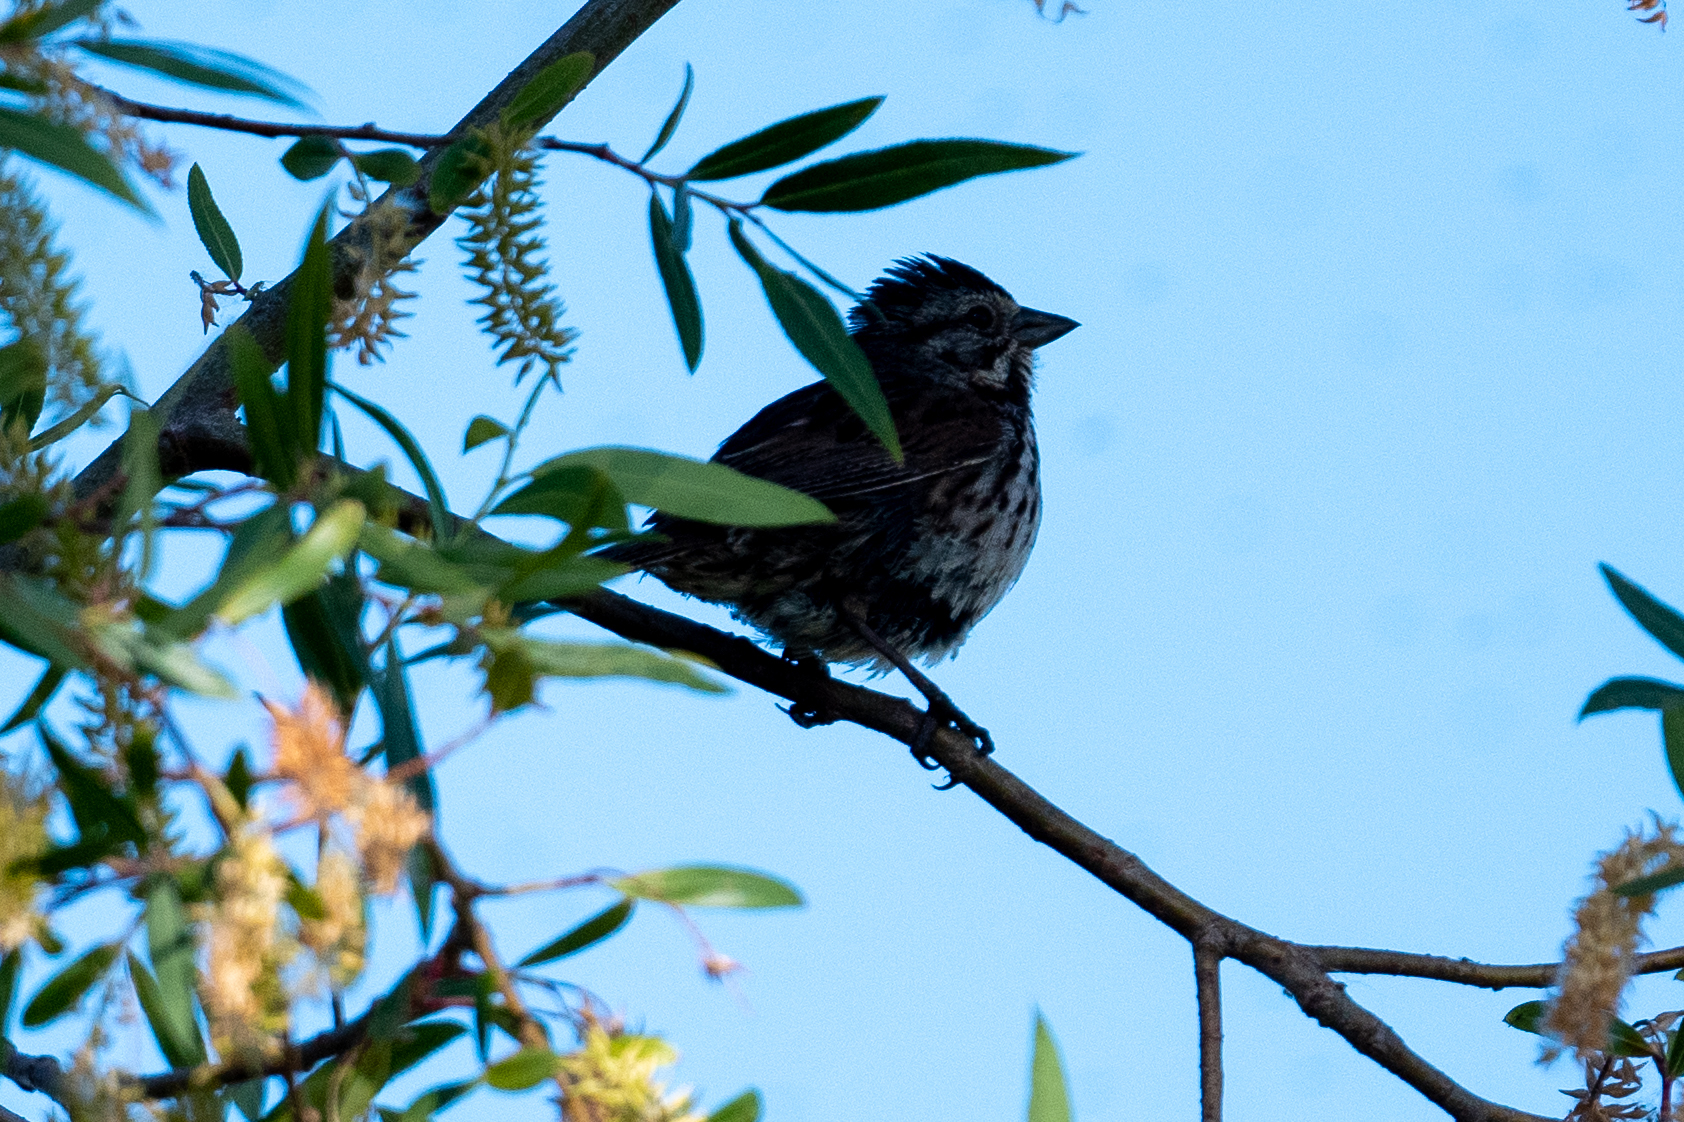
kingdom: Animalia
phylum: Chordata
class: Aves
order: Passeriformes
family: Passerellidae
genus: Melospiza
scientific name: Melospiza melodia
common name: Song sparrow
